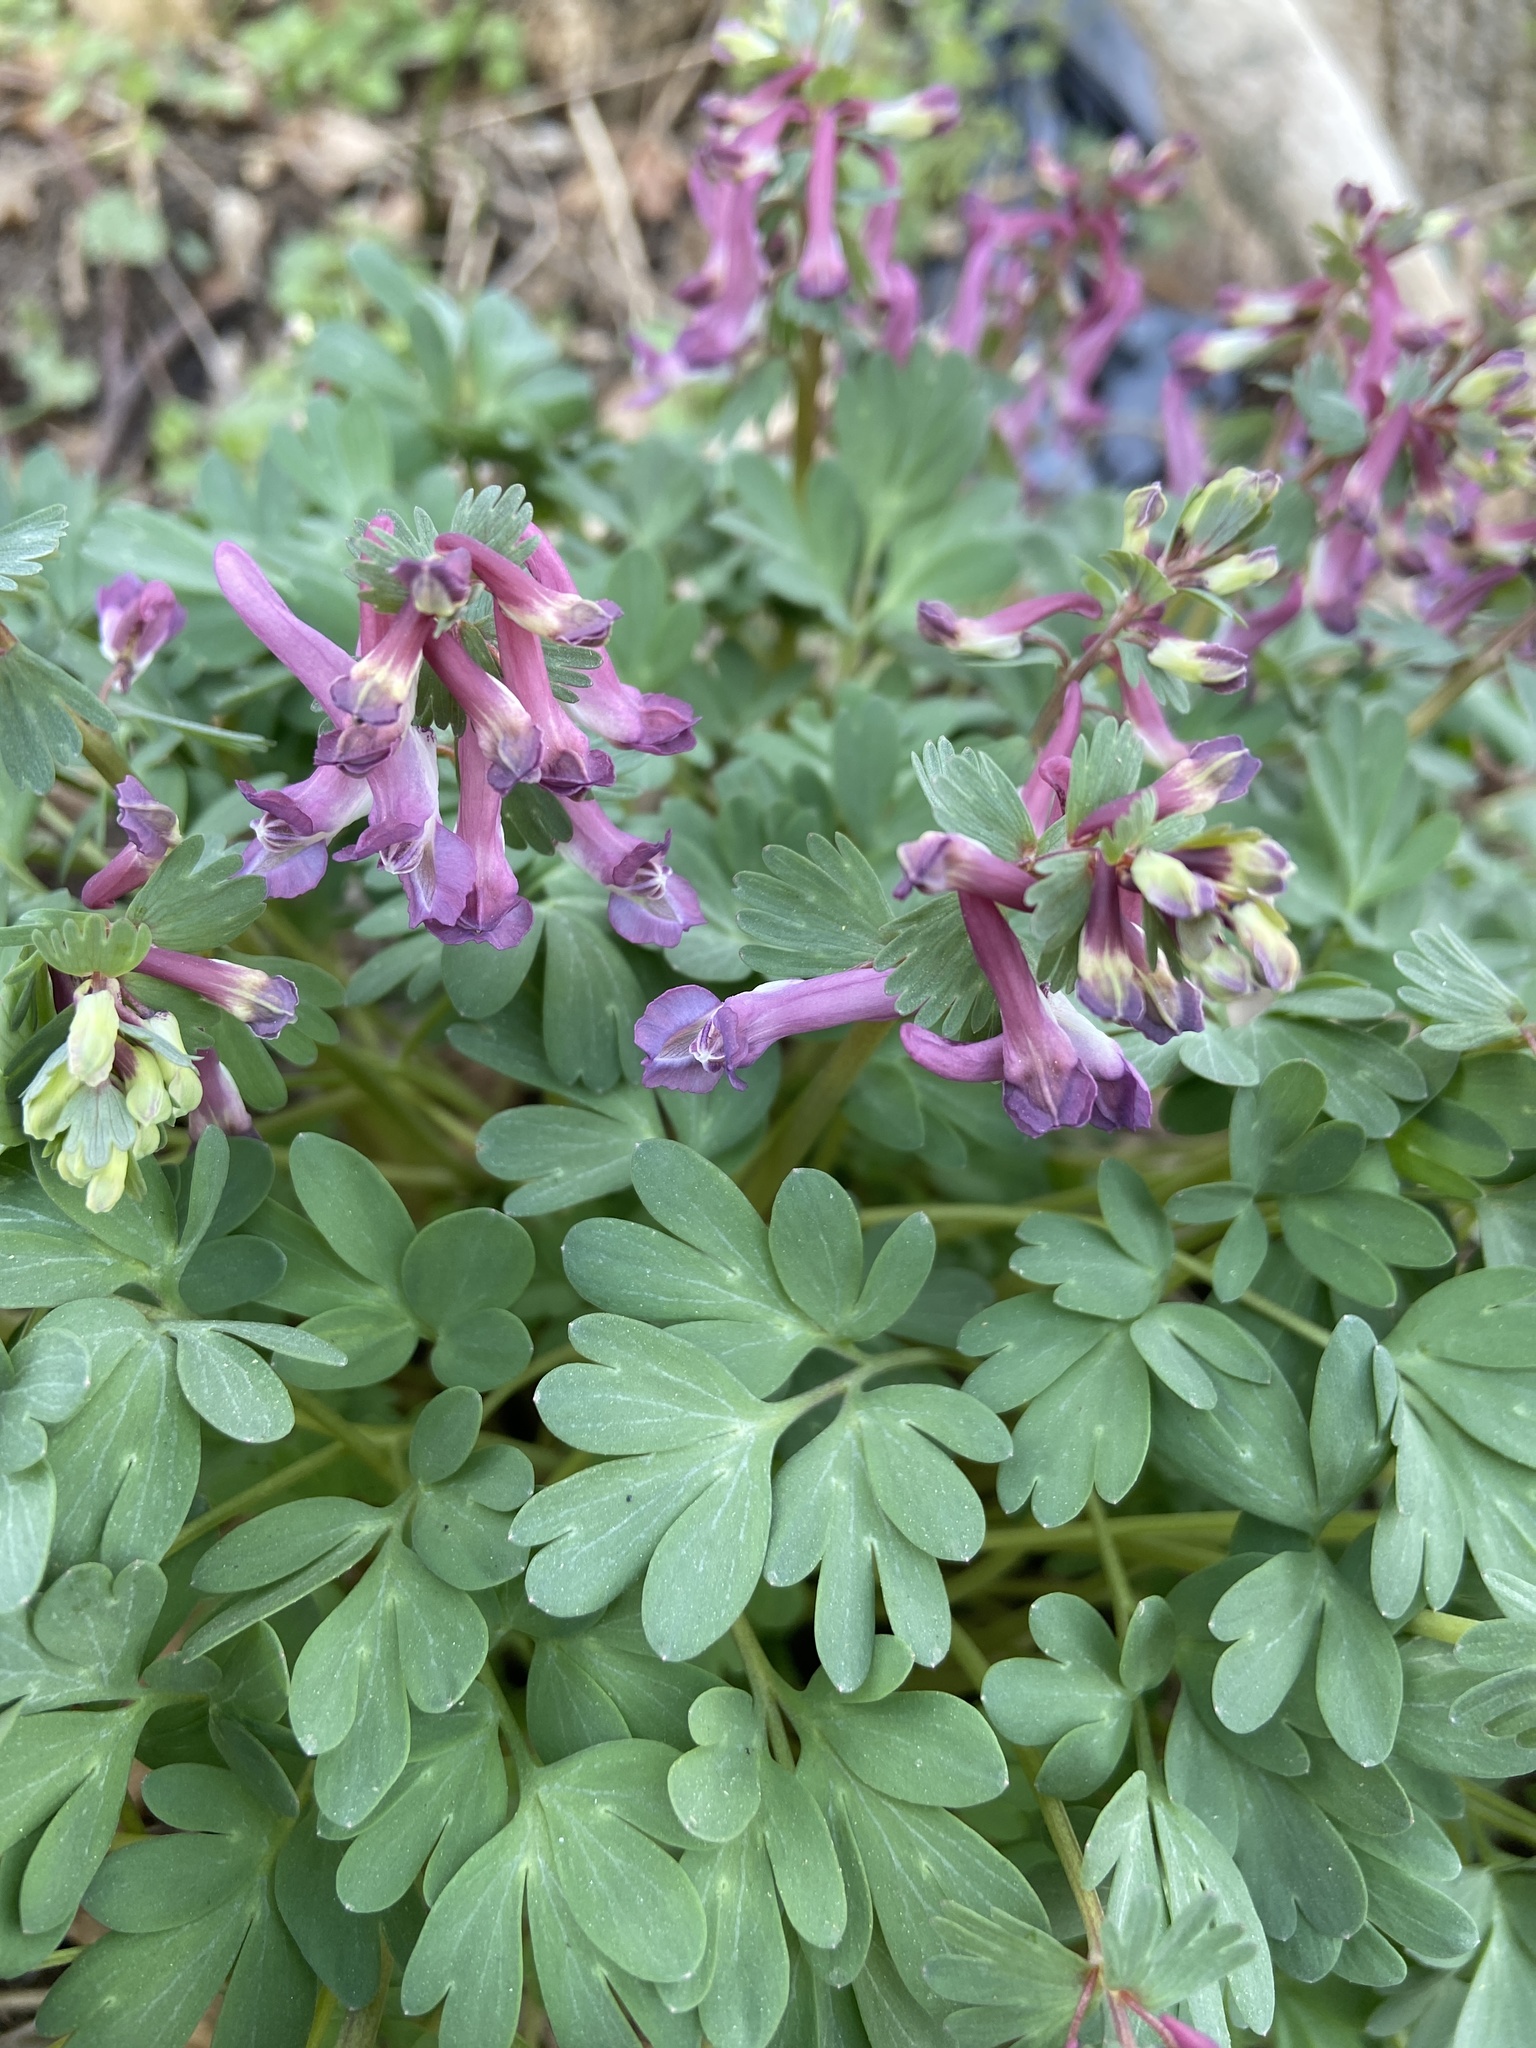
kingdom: Plantae
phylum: Tracheophyta
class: Magnoliopsida
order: Ranunculales
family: Papaveraceae
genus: Corydalis
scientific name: Corydalis solida
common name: Bird-in-a-bush
